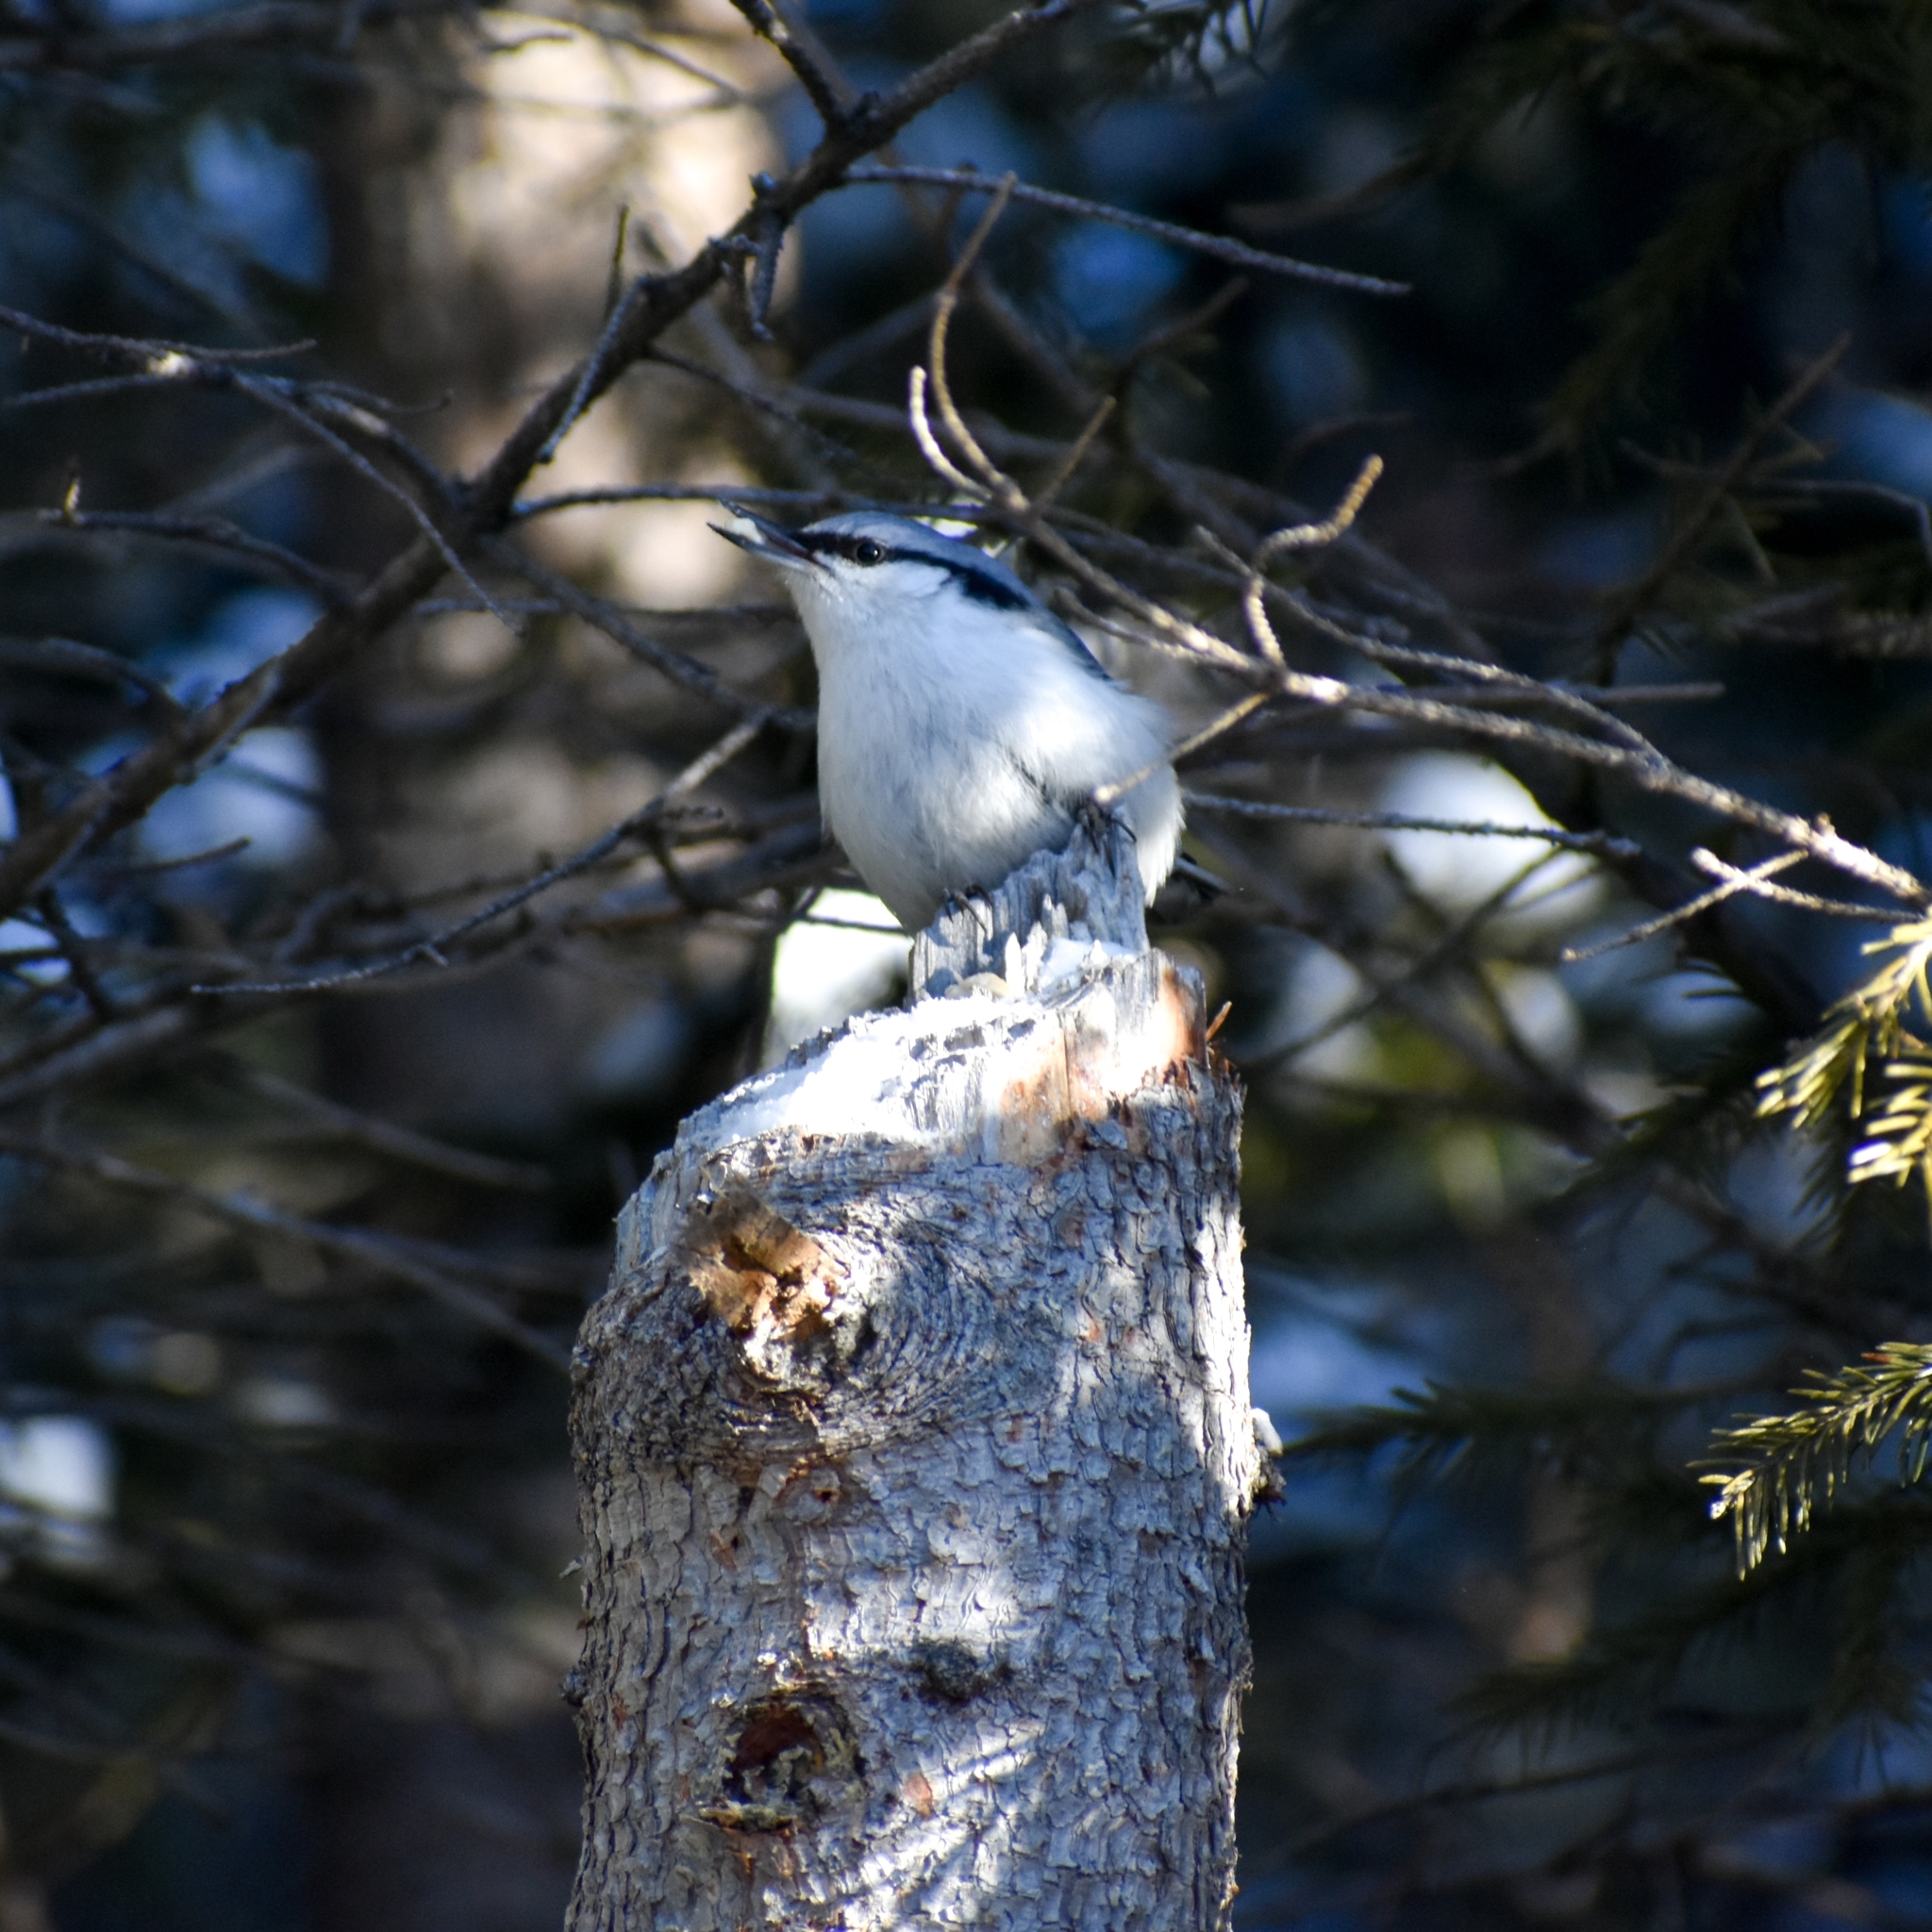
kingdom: Animalia
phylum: Chordata
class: Aves
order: Passeriformes
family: Sittidae
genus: Sitta
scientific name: Sitta europaea
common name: Eurasian nuthatch
